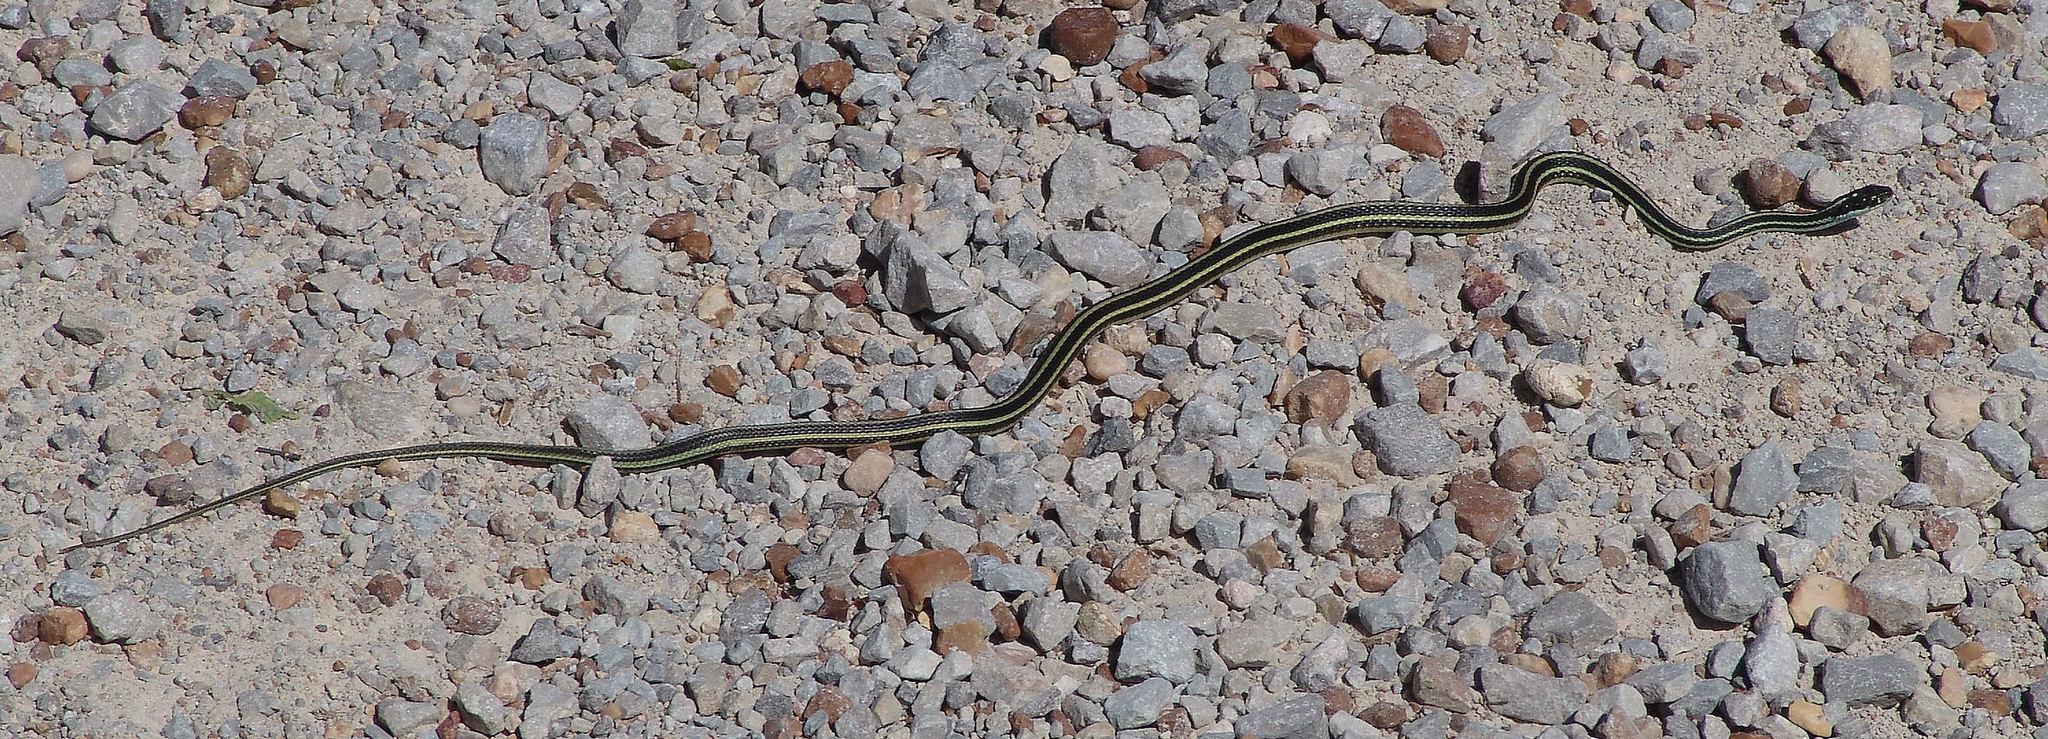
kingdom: Animalia
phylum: Chordata
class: Squamata
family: Colubridae
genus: Thamnophis
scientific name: Thamnophis proximus
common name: Western ribbon snake
